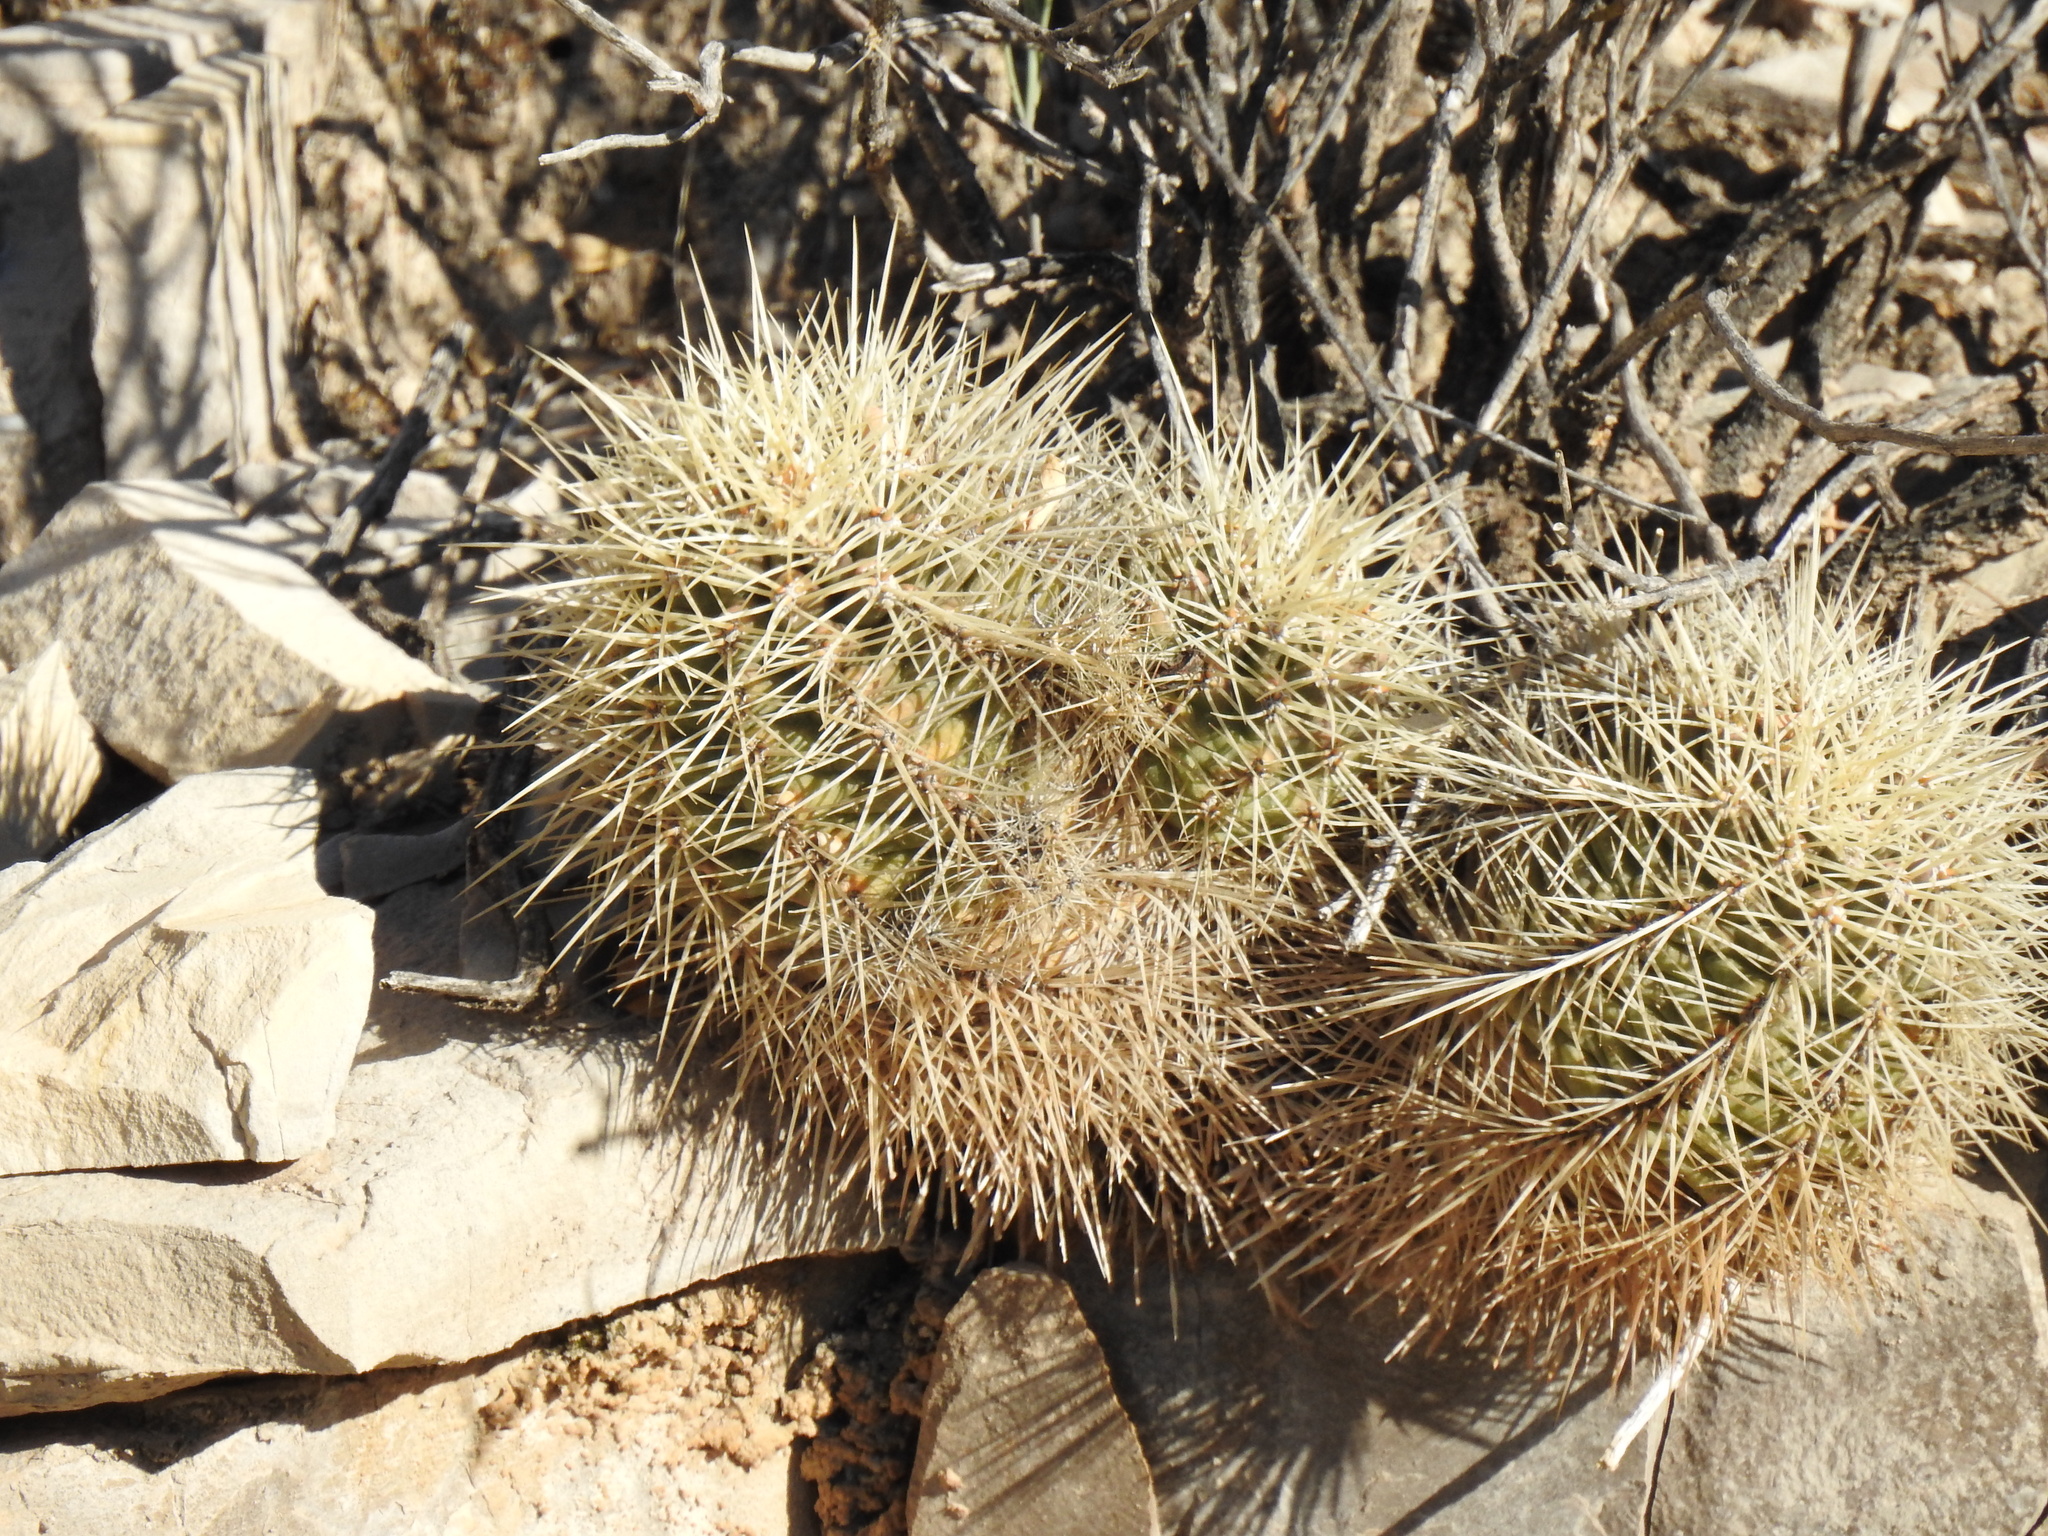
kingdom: Plantae
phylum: Tracheophyta
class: Magnoliopsida
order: Caryophyllales
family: Cactaceae
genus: Echinocereus
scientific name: Echinocereus coccineus
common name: Scarlet hedgehog cactus
